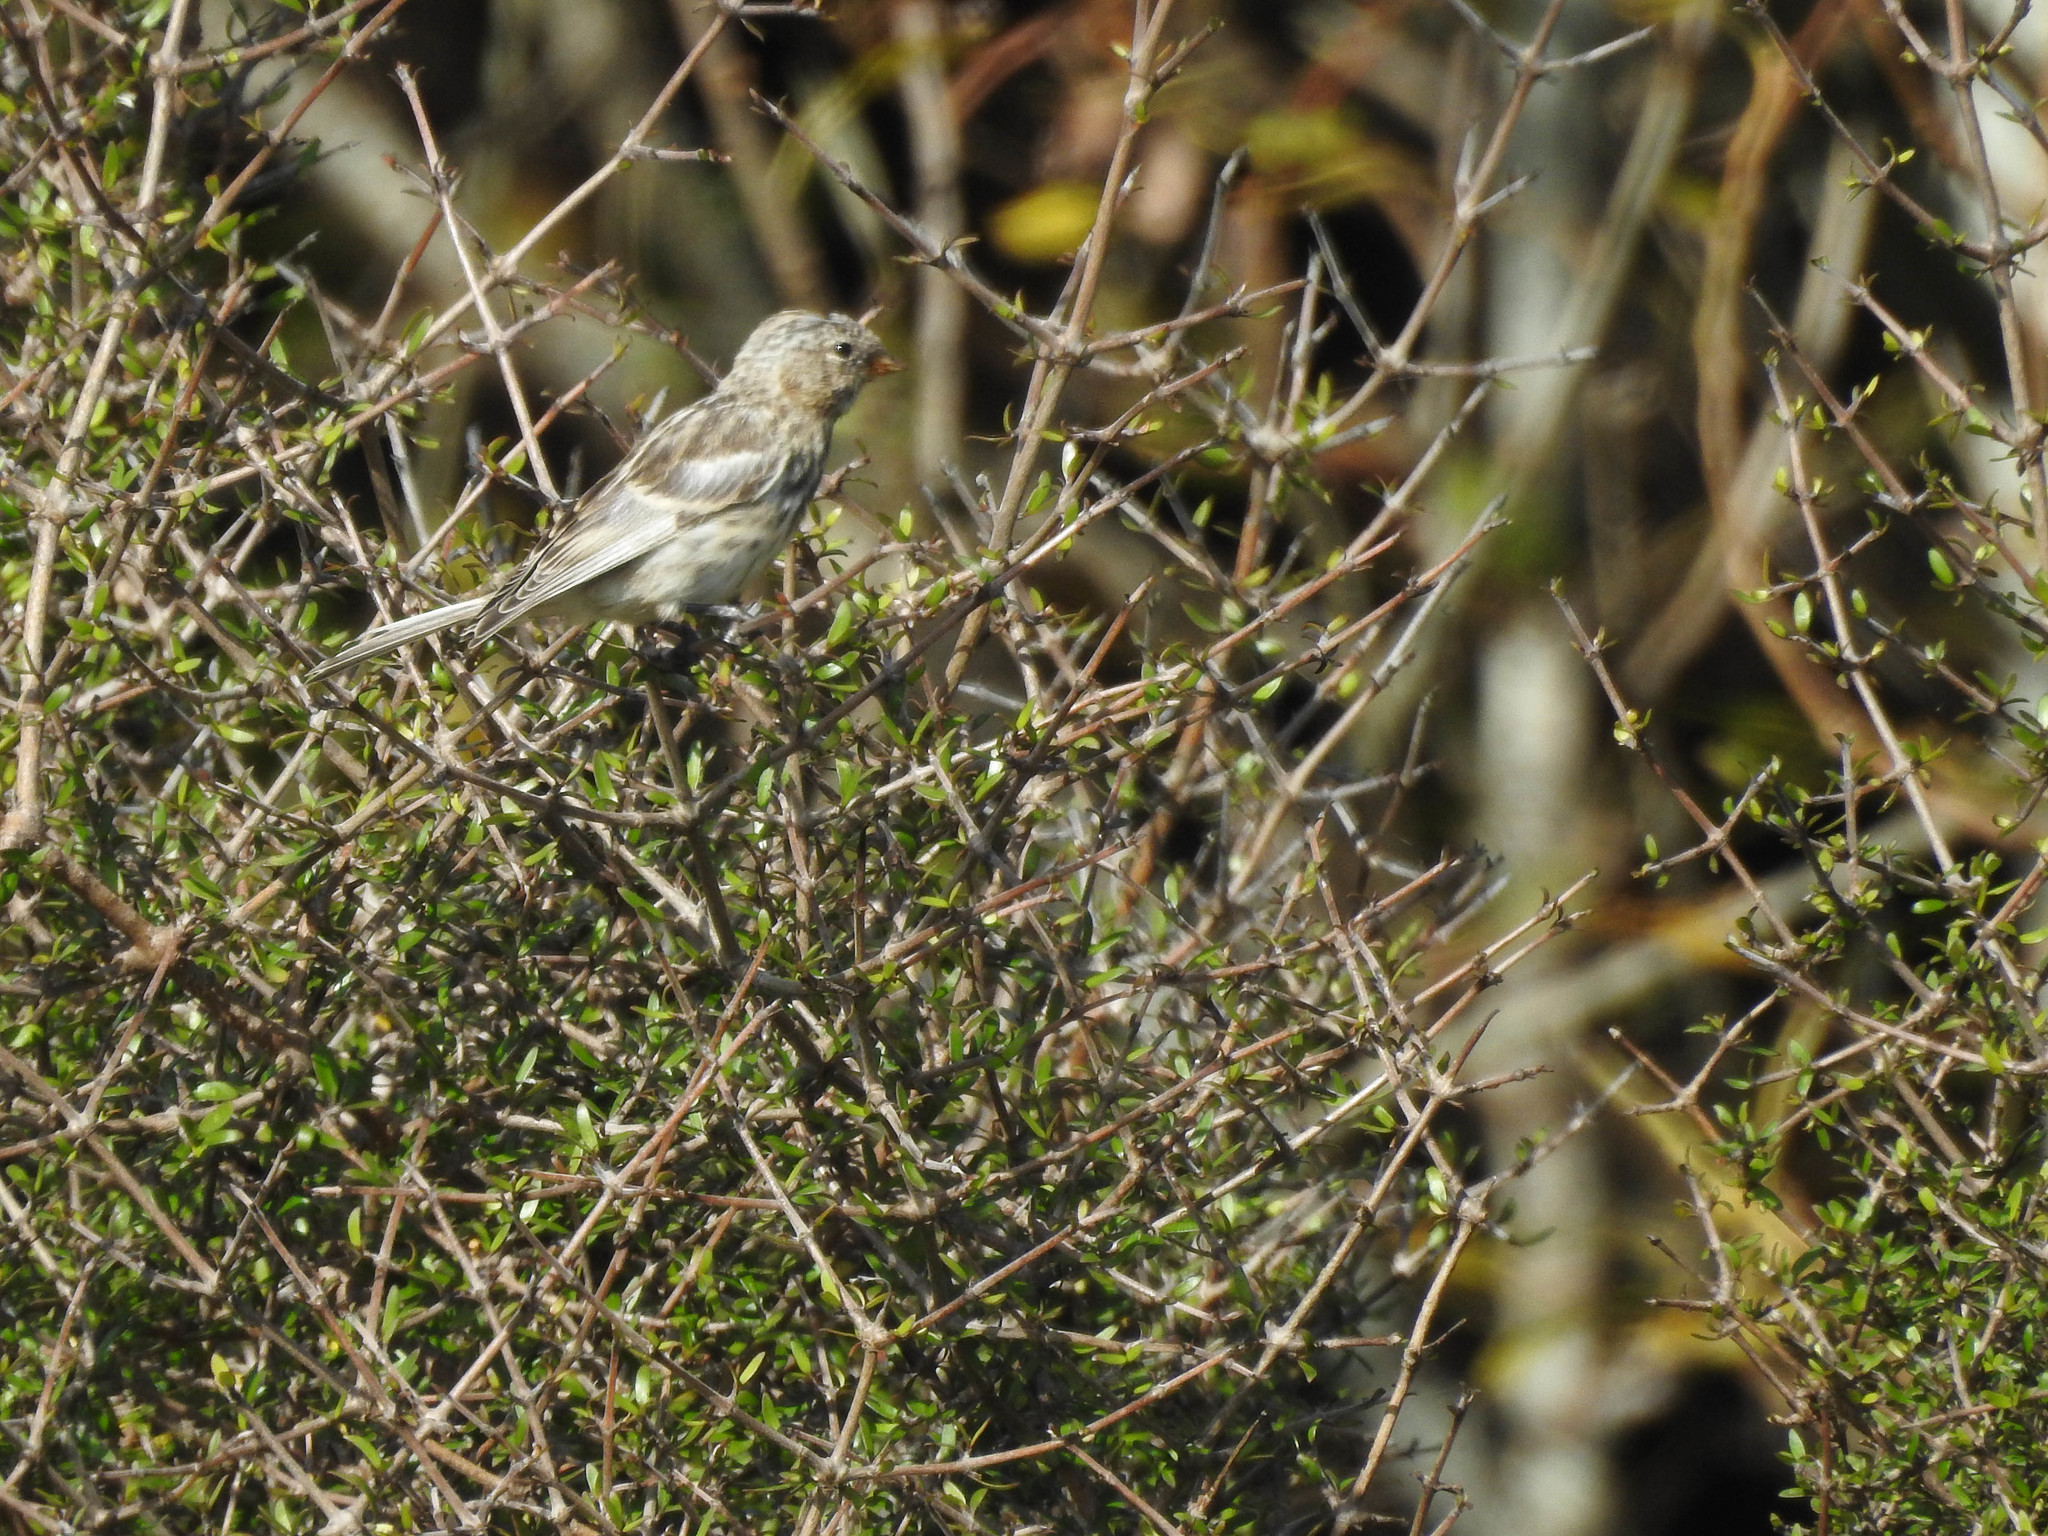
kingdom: Animalia
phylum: Chordata
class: Aves
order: Passeriformes
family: Fringillidae
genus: Acanthis
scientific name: Acanthis flammea
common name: Common redpoll
